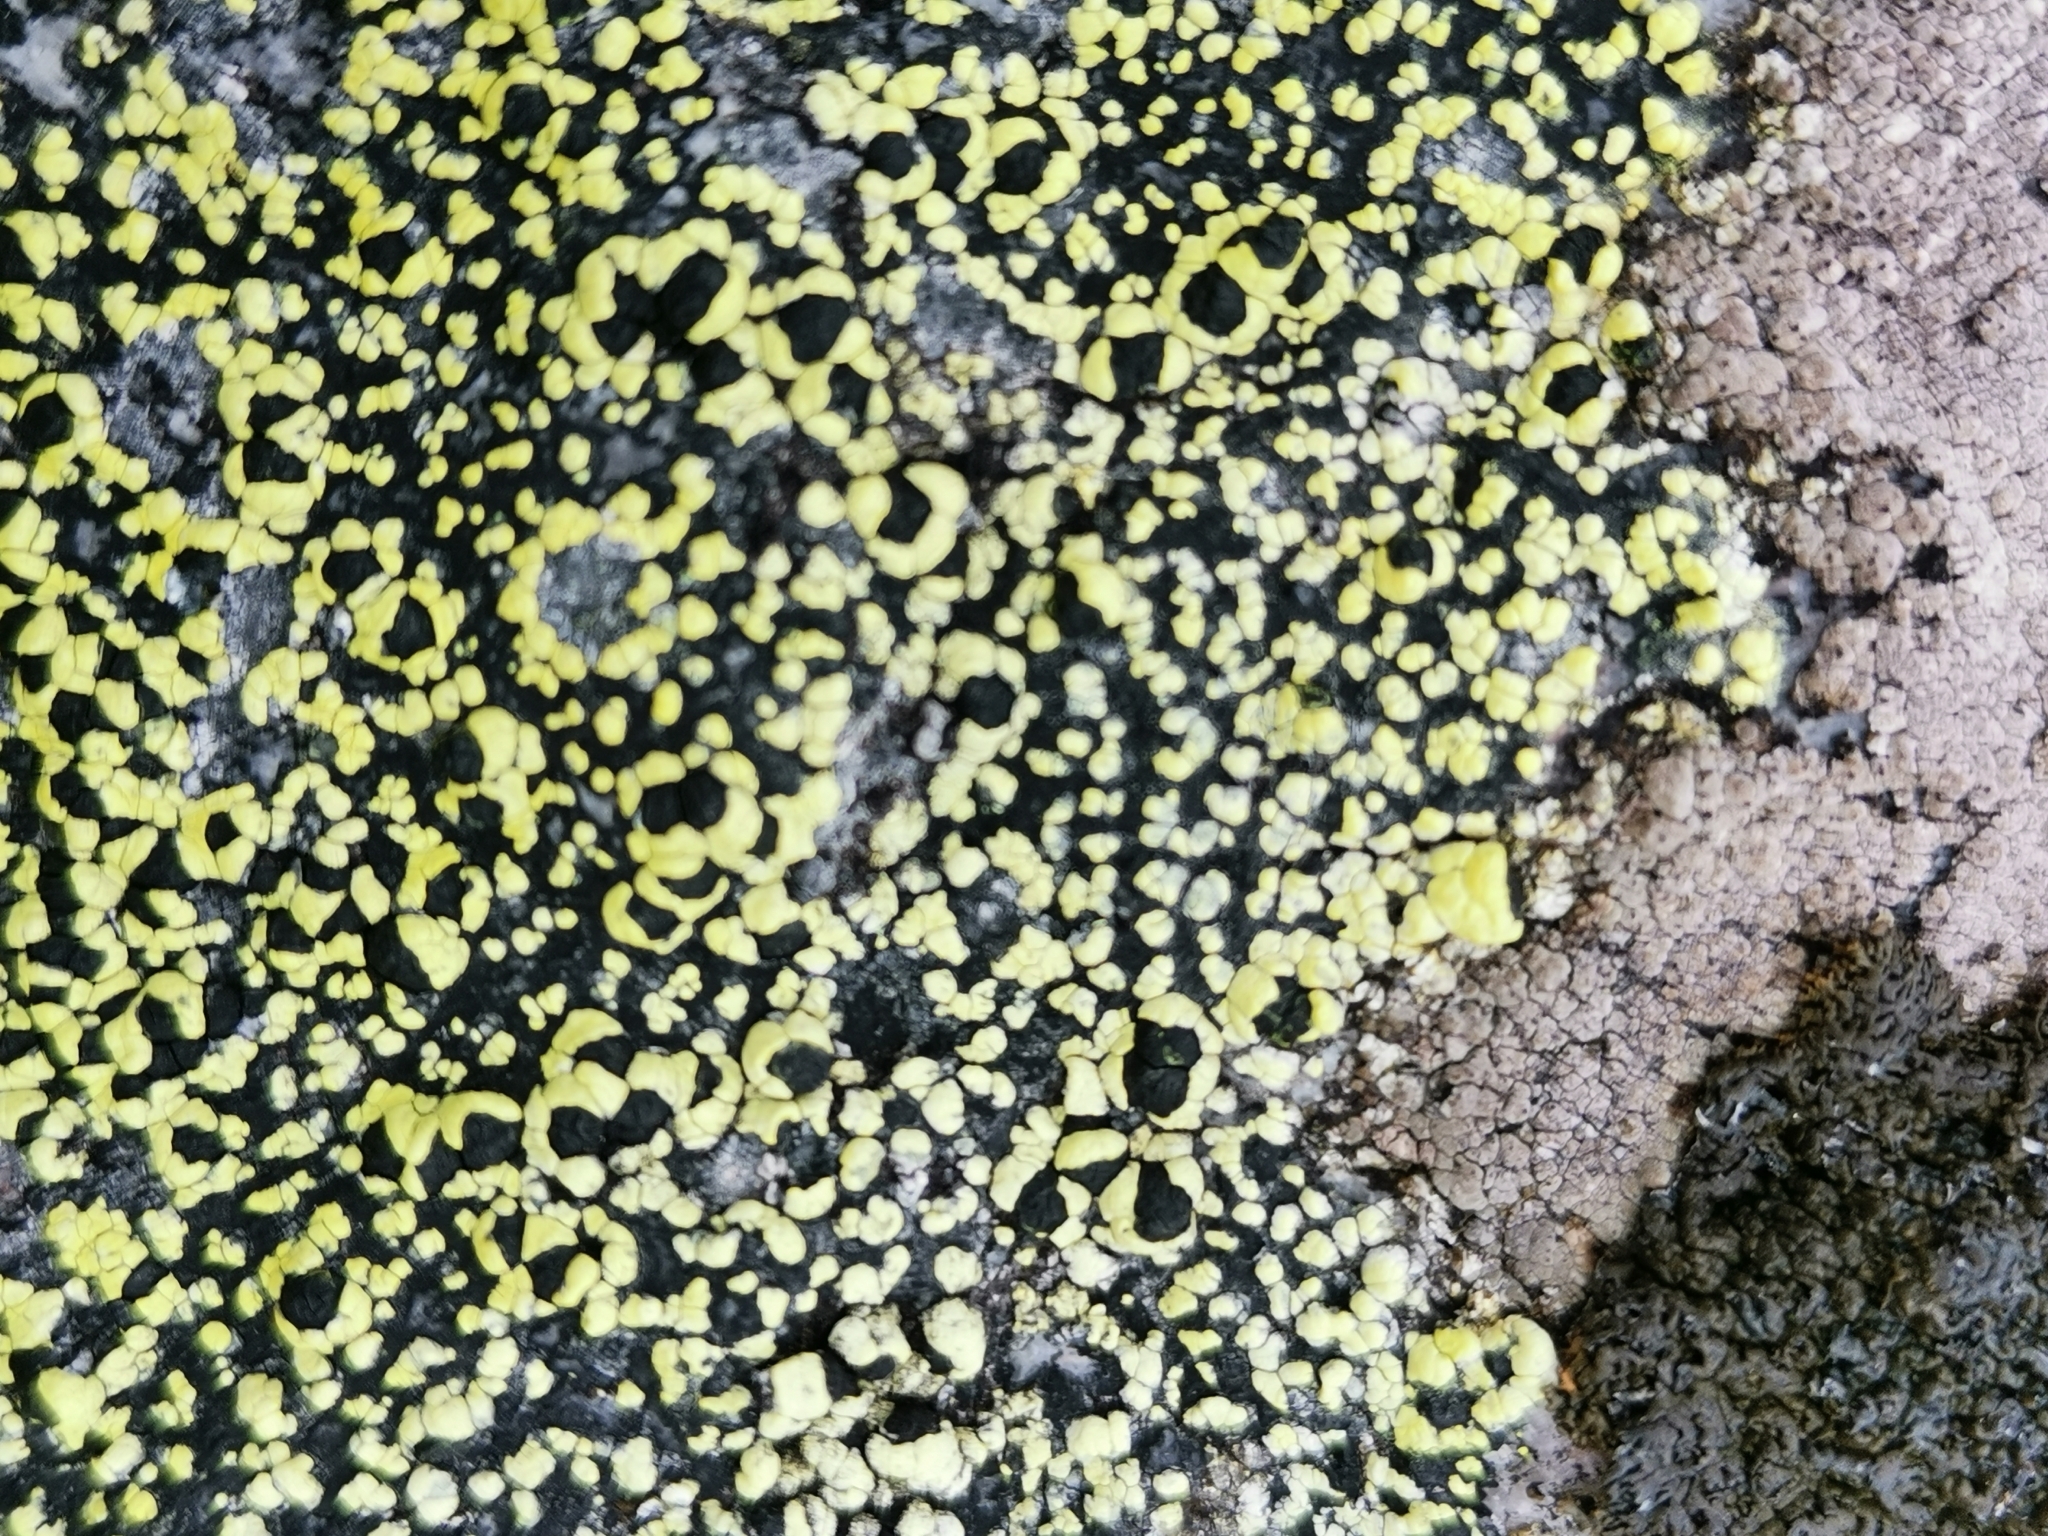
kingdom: Fungi
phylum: Ascomycota
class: Lecanoromycetes
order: Rhizocarpales
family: Rhizocarpaceae
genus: Rhizocarpon
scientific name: Rhizocarpon lecanorinum
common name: Crescent map lichen
